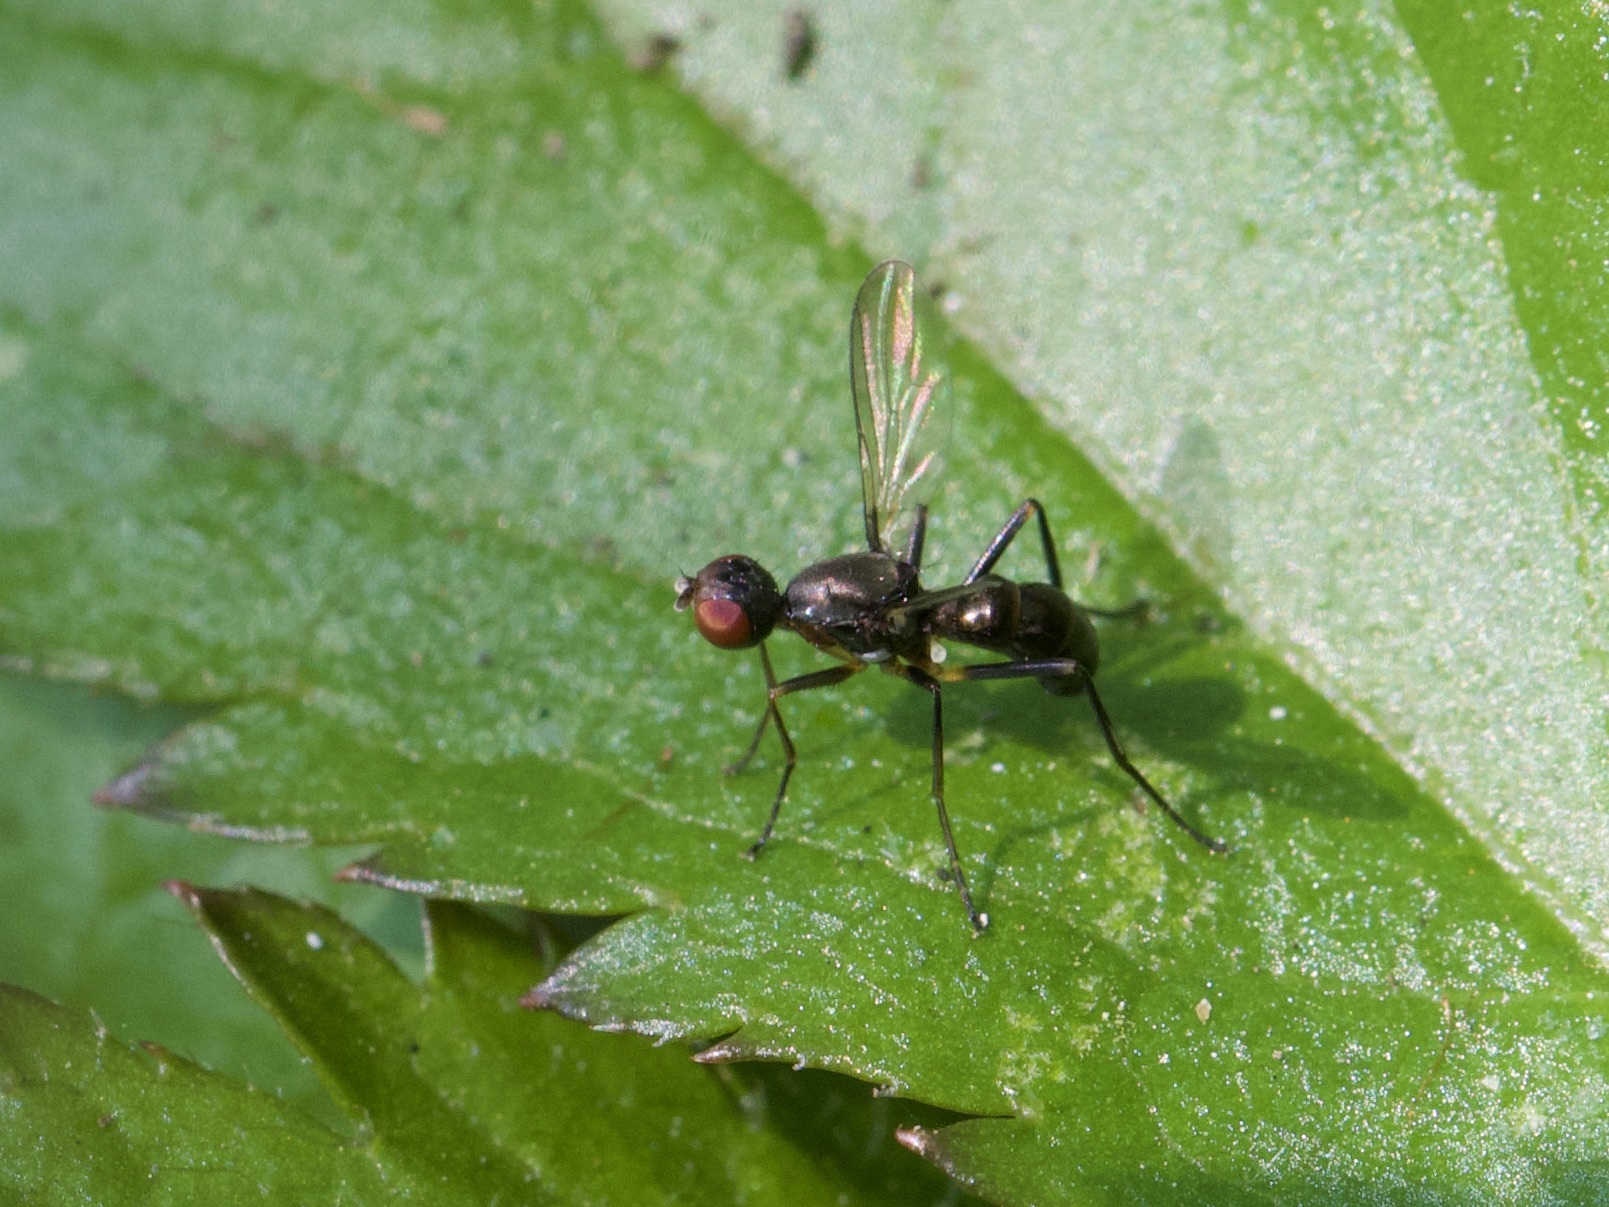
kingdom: Animalia
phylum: Arthropoda
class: Insecta
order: Diptera
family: Sepsidae
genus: Nemopoda
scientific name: Nemopoda nitidula
